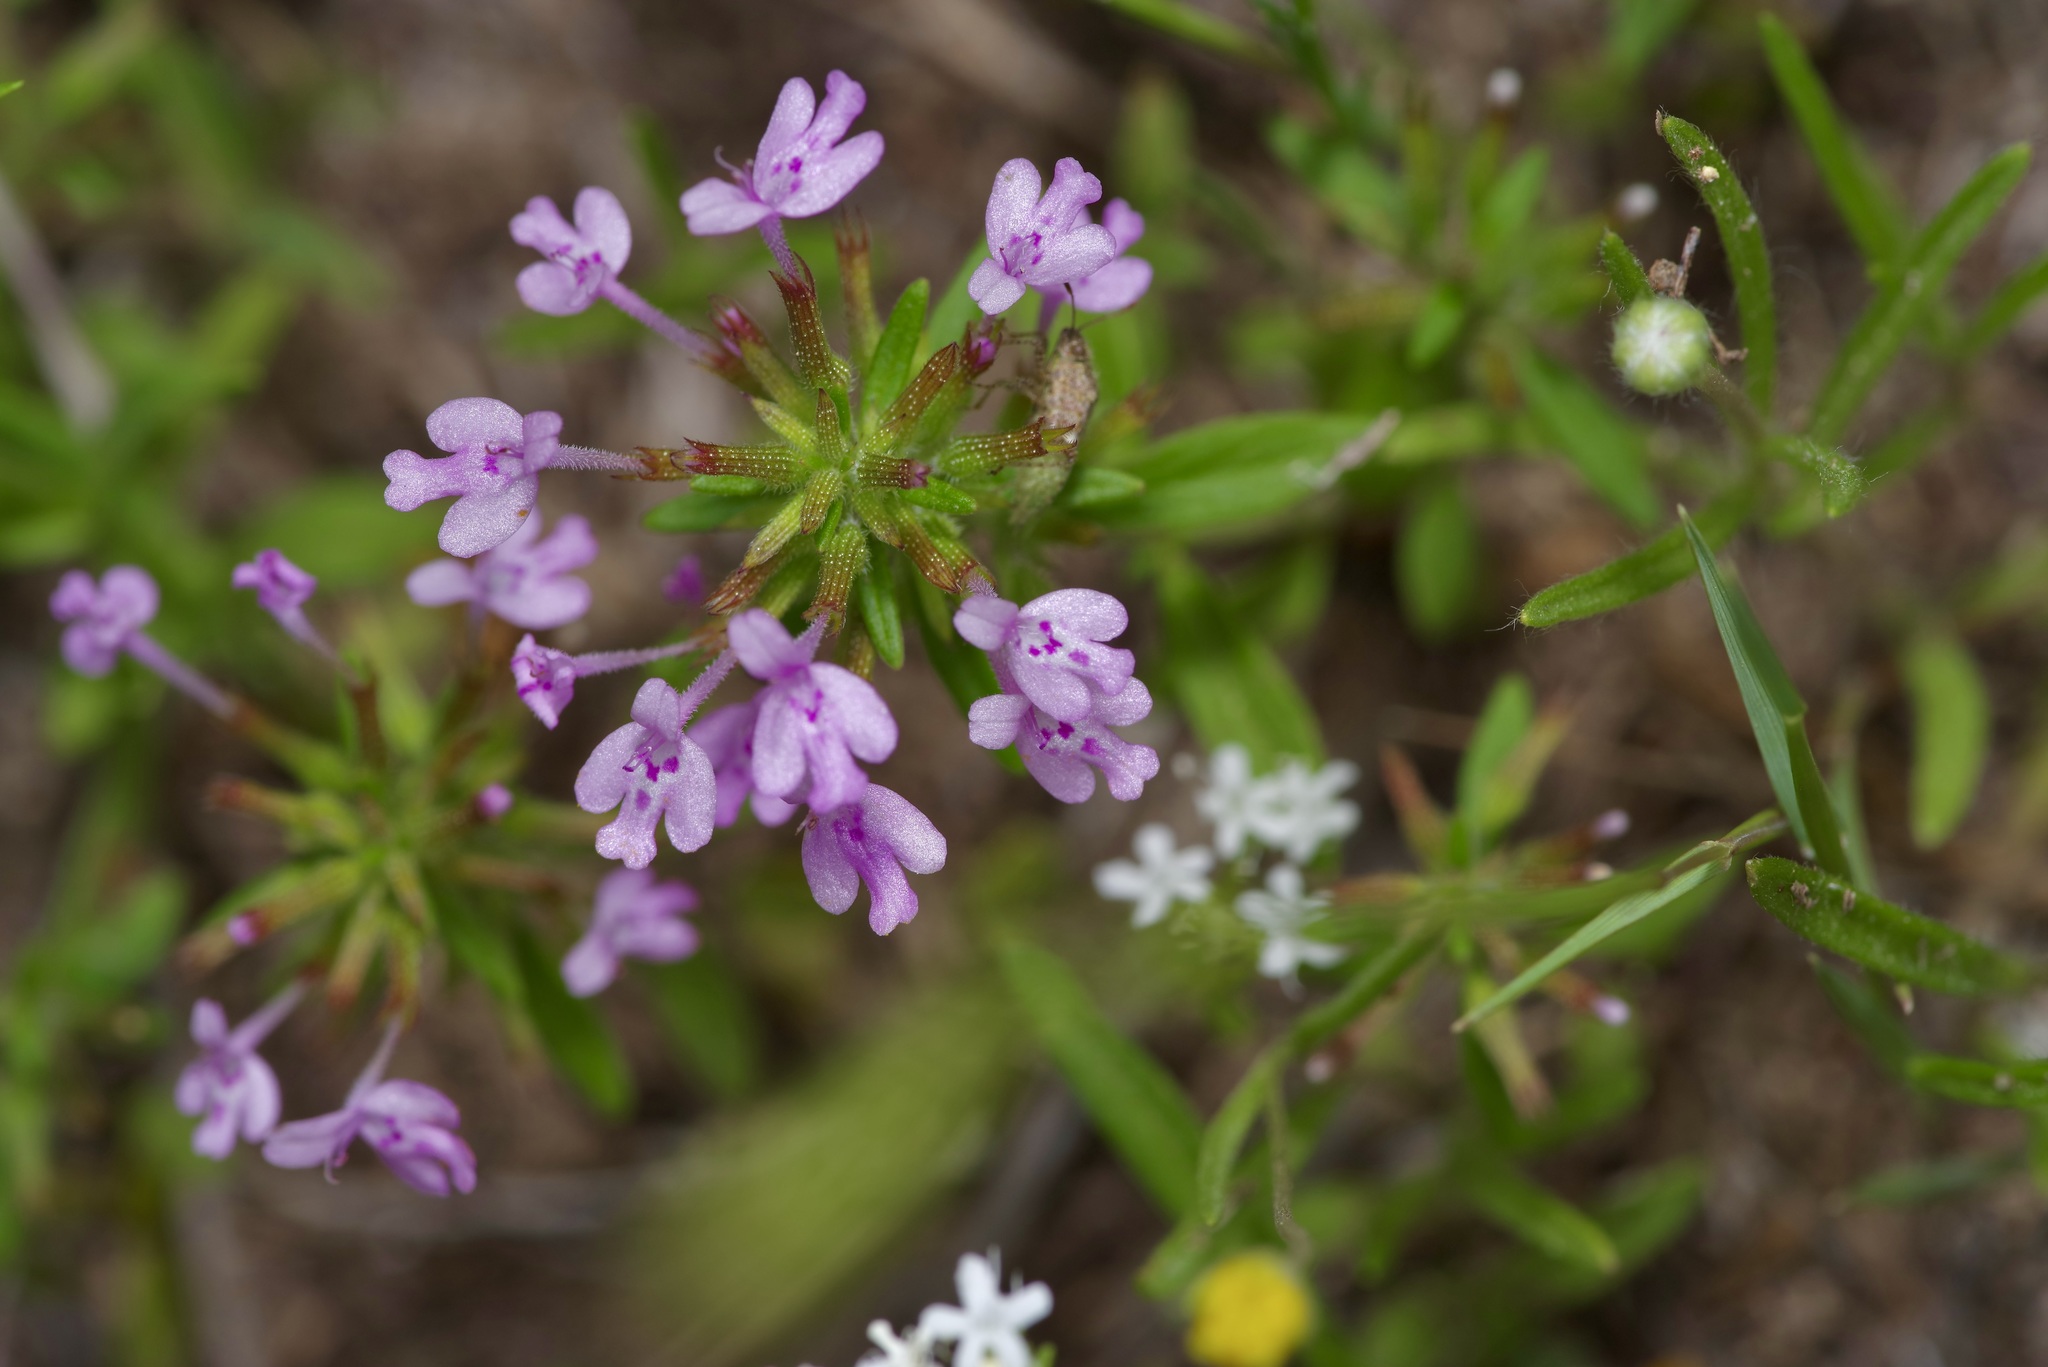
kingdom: Plantae
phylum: Tracheophyta
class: Magnoliopsida
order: Lamiales
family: Lamiaceae
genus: Hedeoma
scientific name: Hedeoma acinoides
